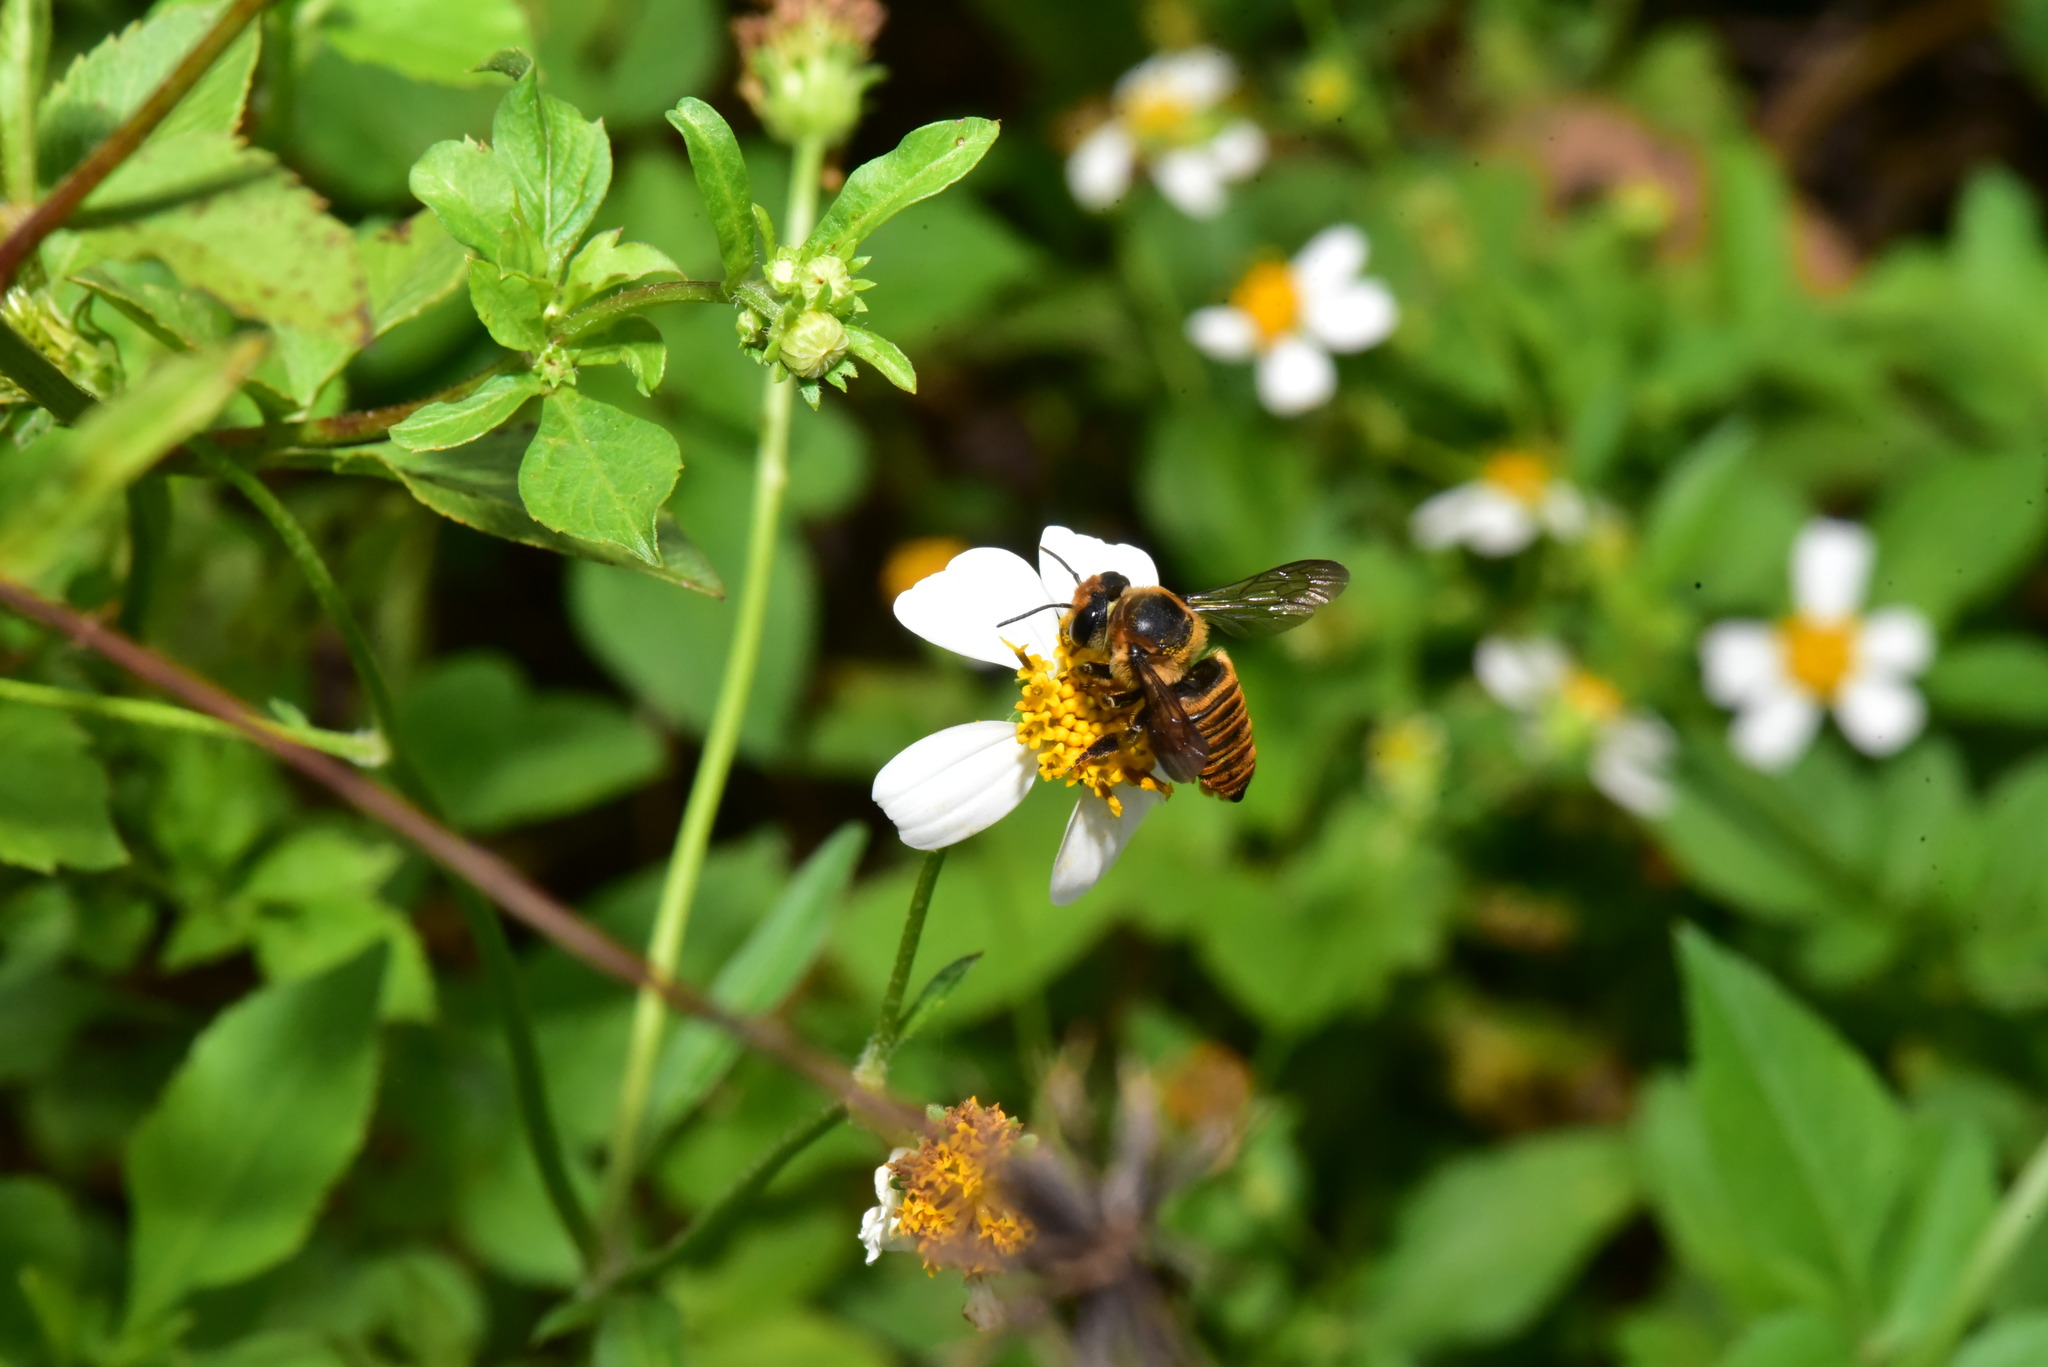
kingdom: Animalia
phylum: Arthropoda
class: Insecta
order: Hymenoptera
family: Megachilidae
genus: Megachile
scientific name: Megachile rufovittata
